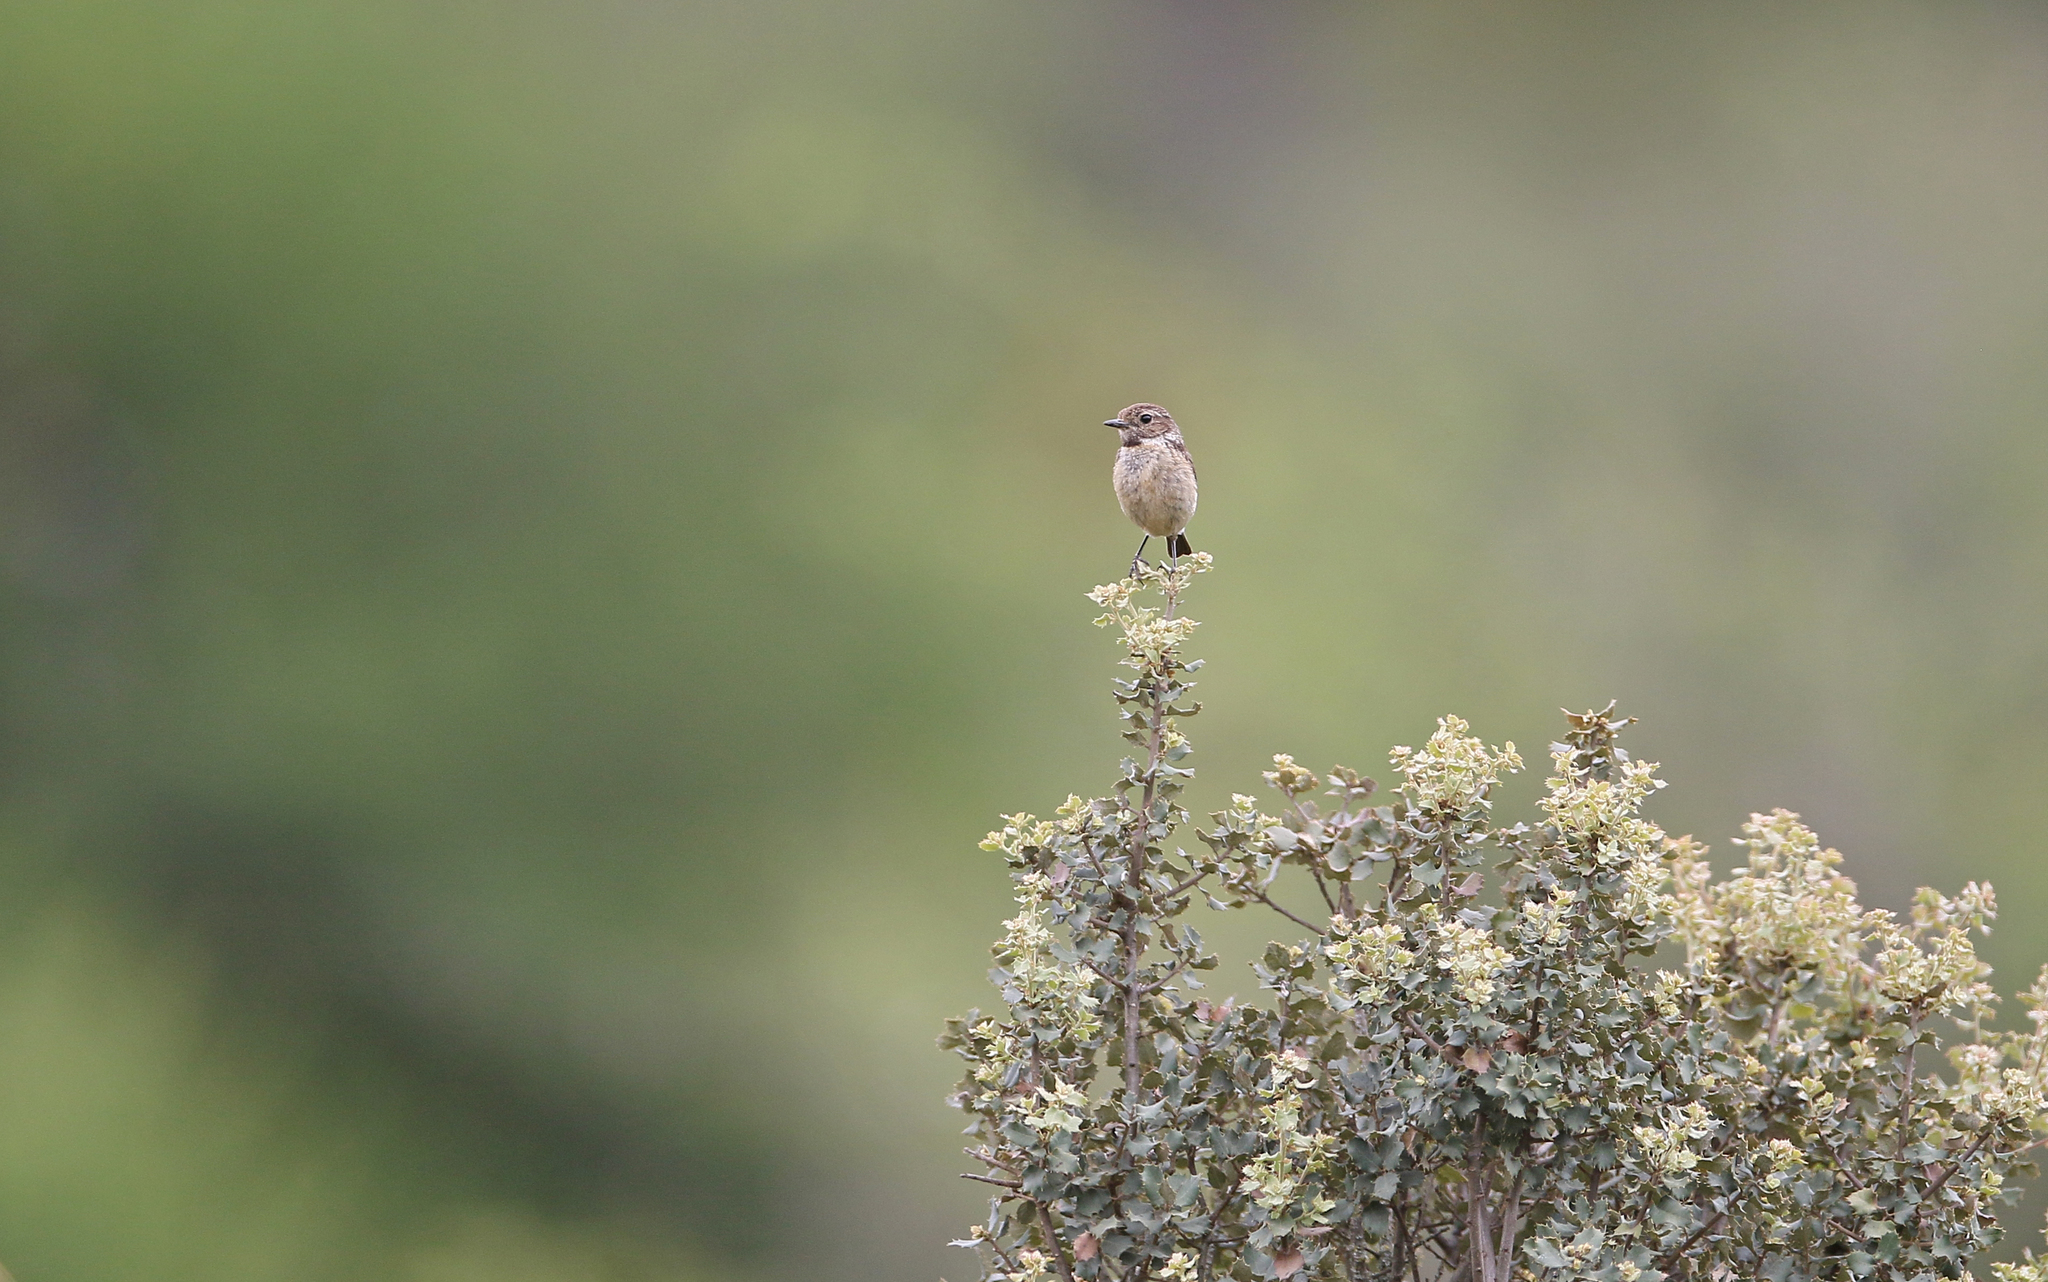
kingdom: Animalia
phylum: Chordata
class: Aves
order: Passeriformes
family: Muscicapidae
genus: Saxicola
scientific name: Saxicola rubicola
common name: European stonechat
